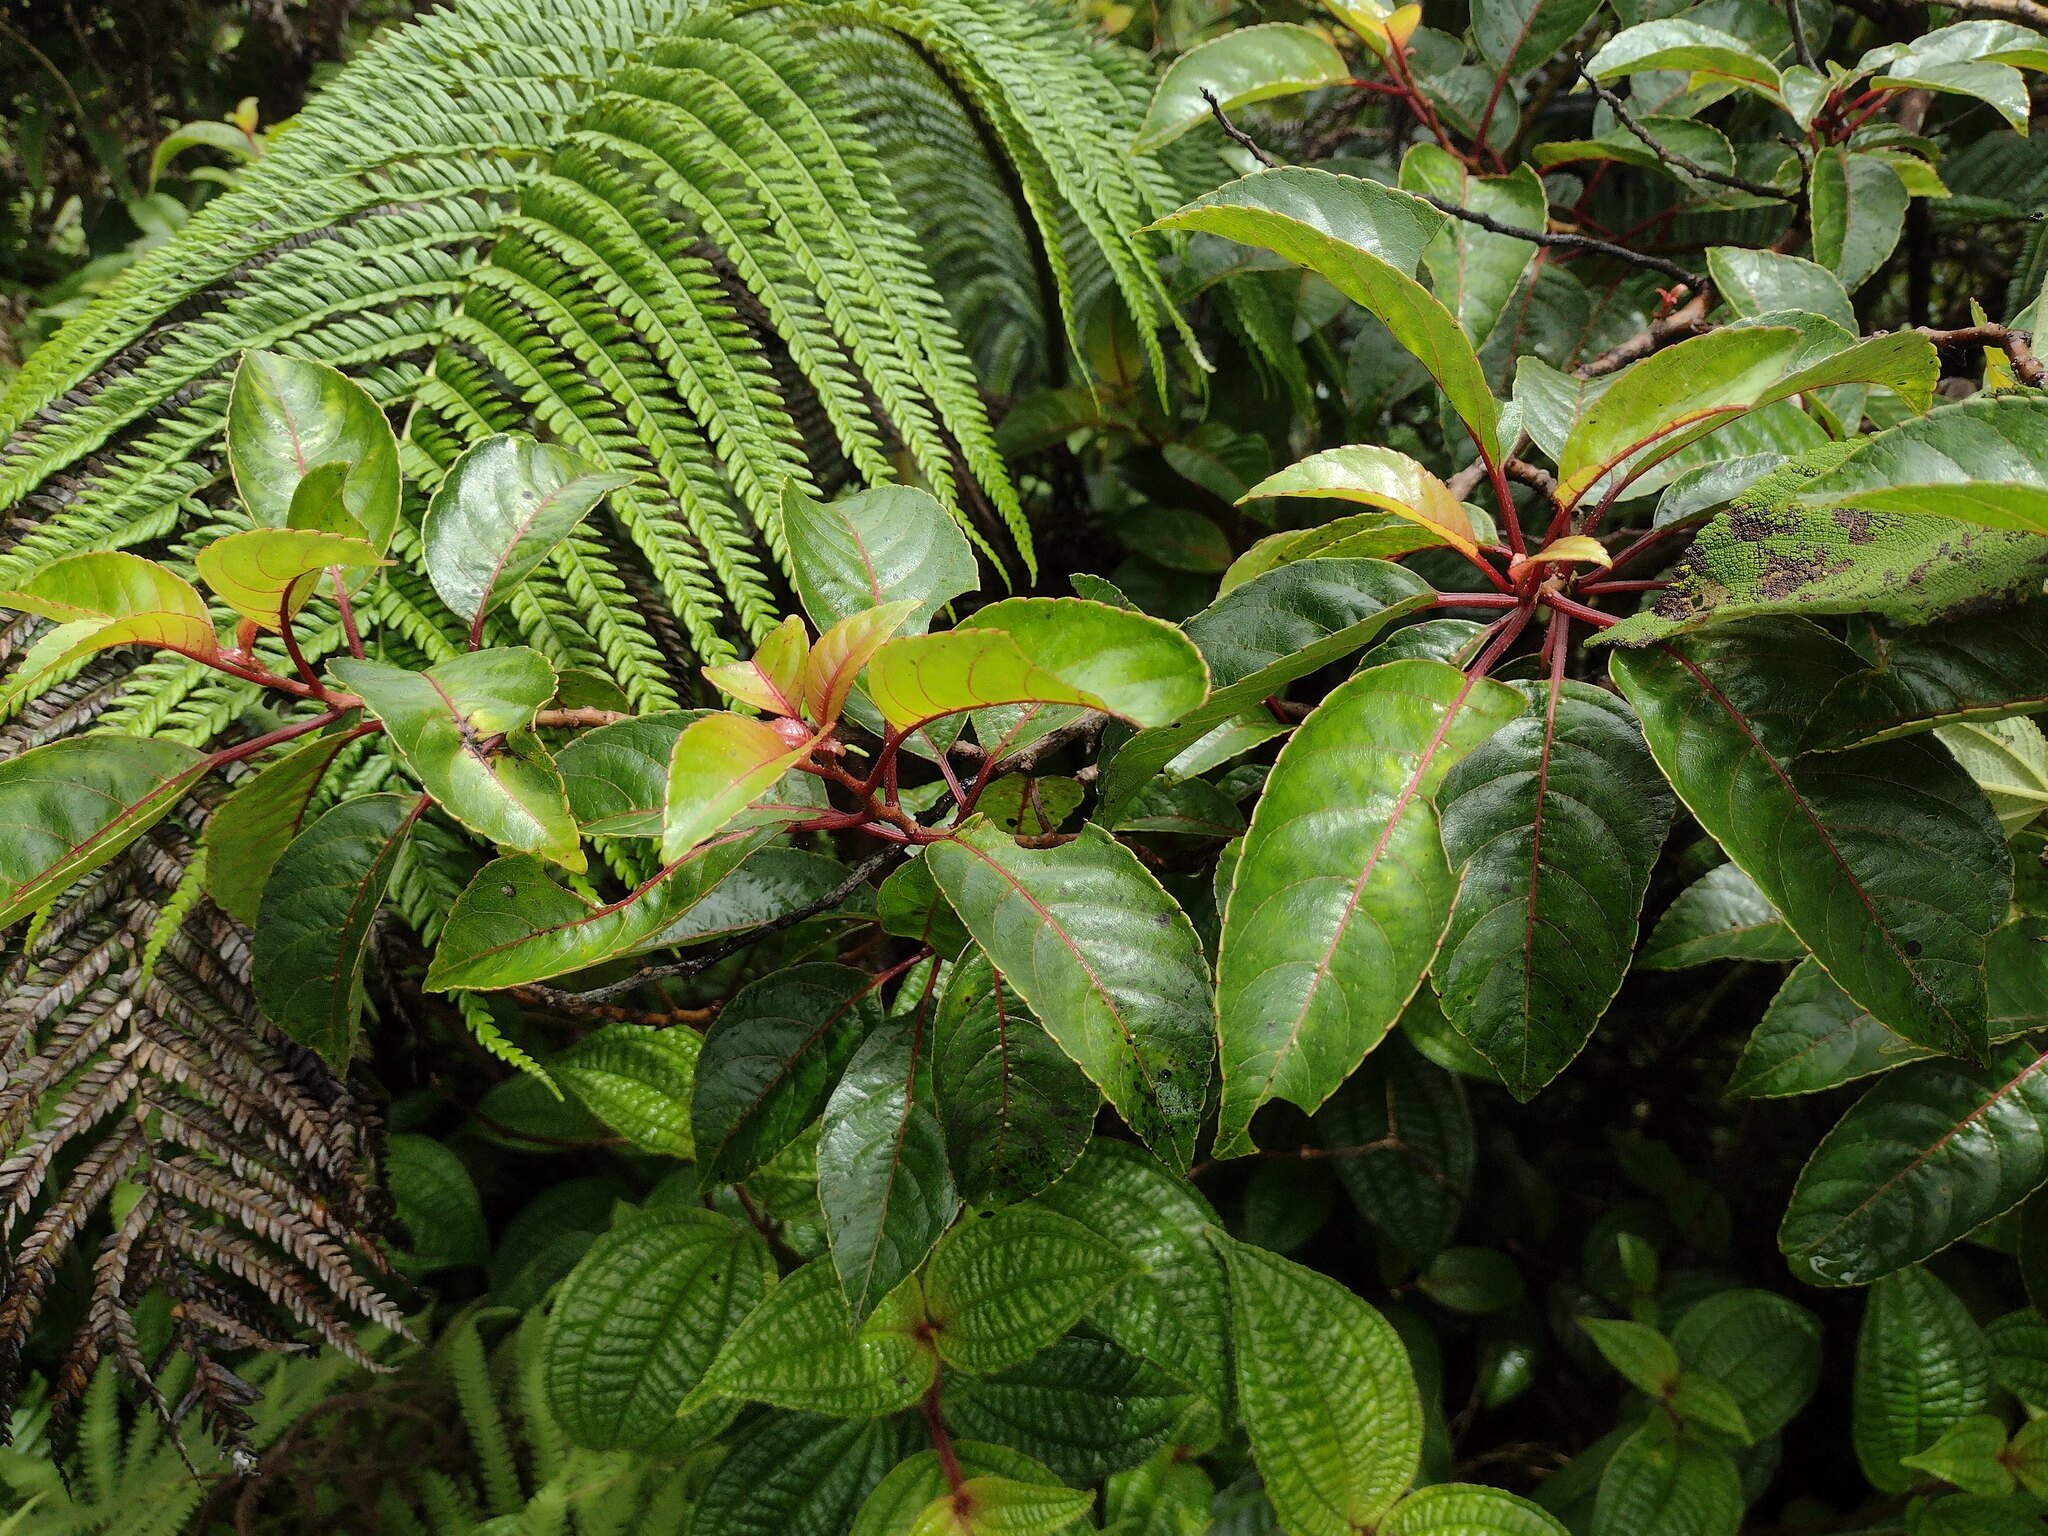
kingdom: Plantae
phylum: Tracheophyta
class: Magnoliopsida
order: Huerteales
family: Dipentodontaceae
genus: Perrottetia
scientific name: Perrottetia sandwicensis
